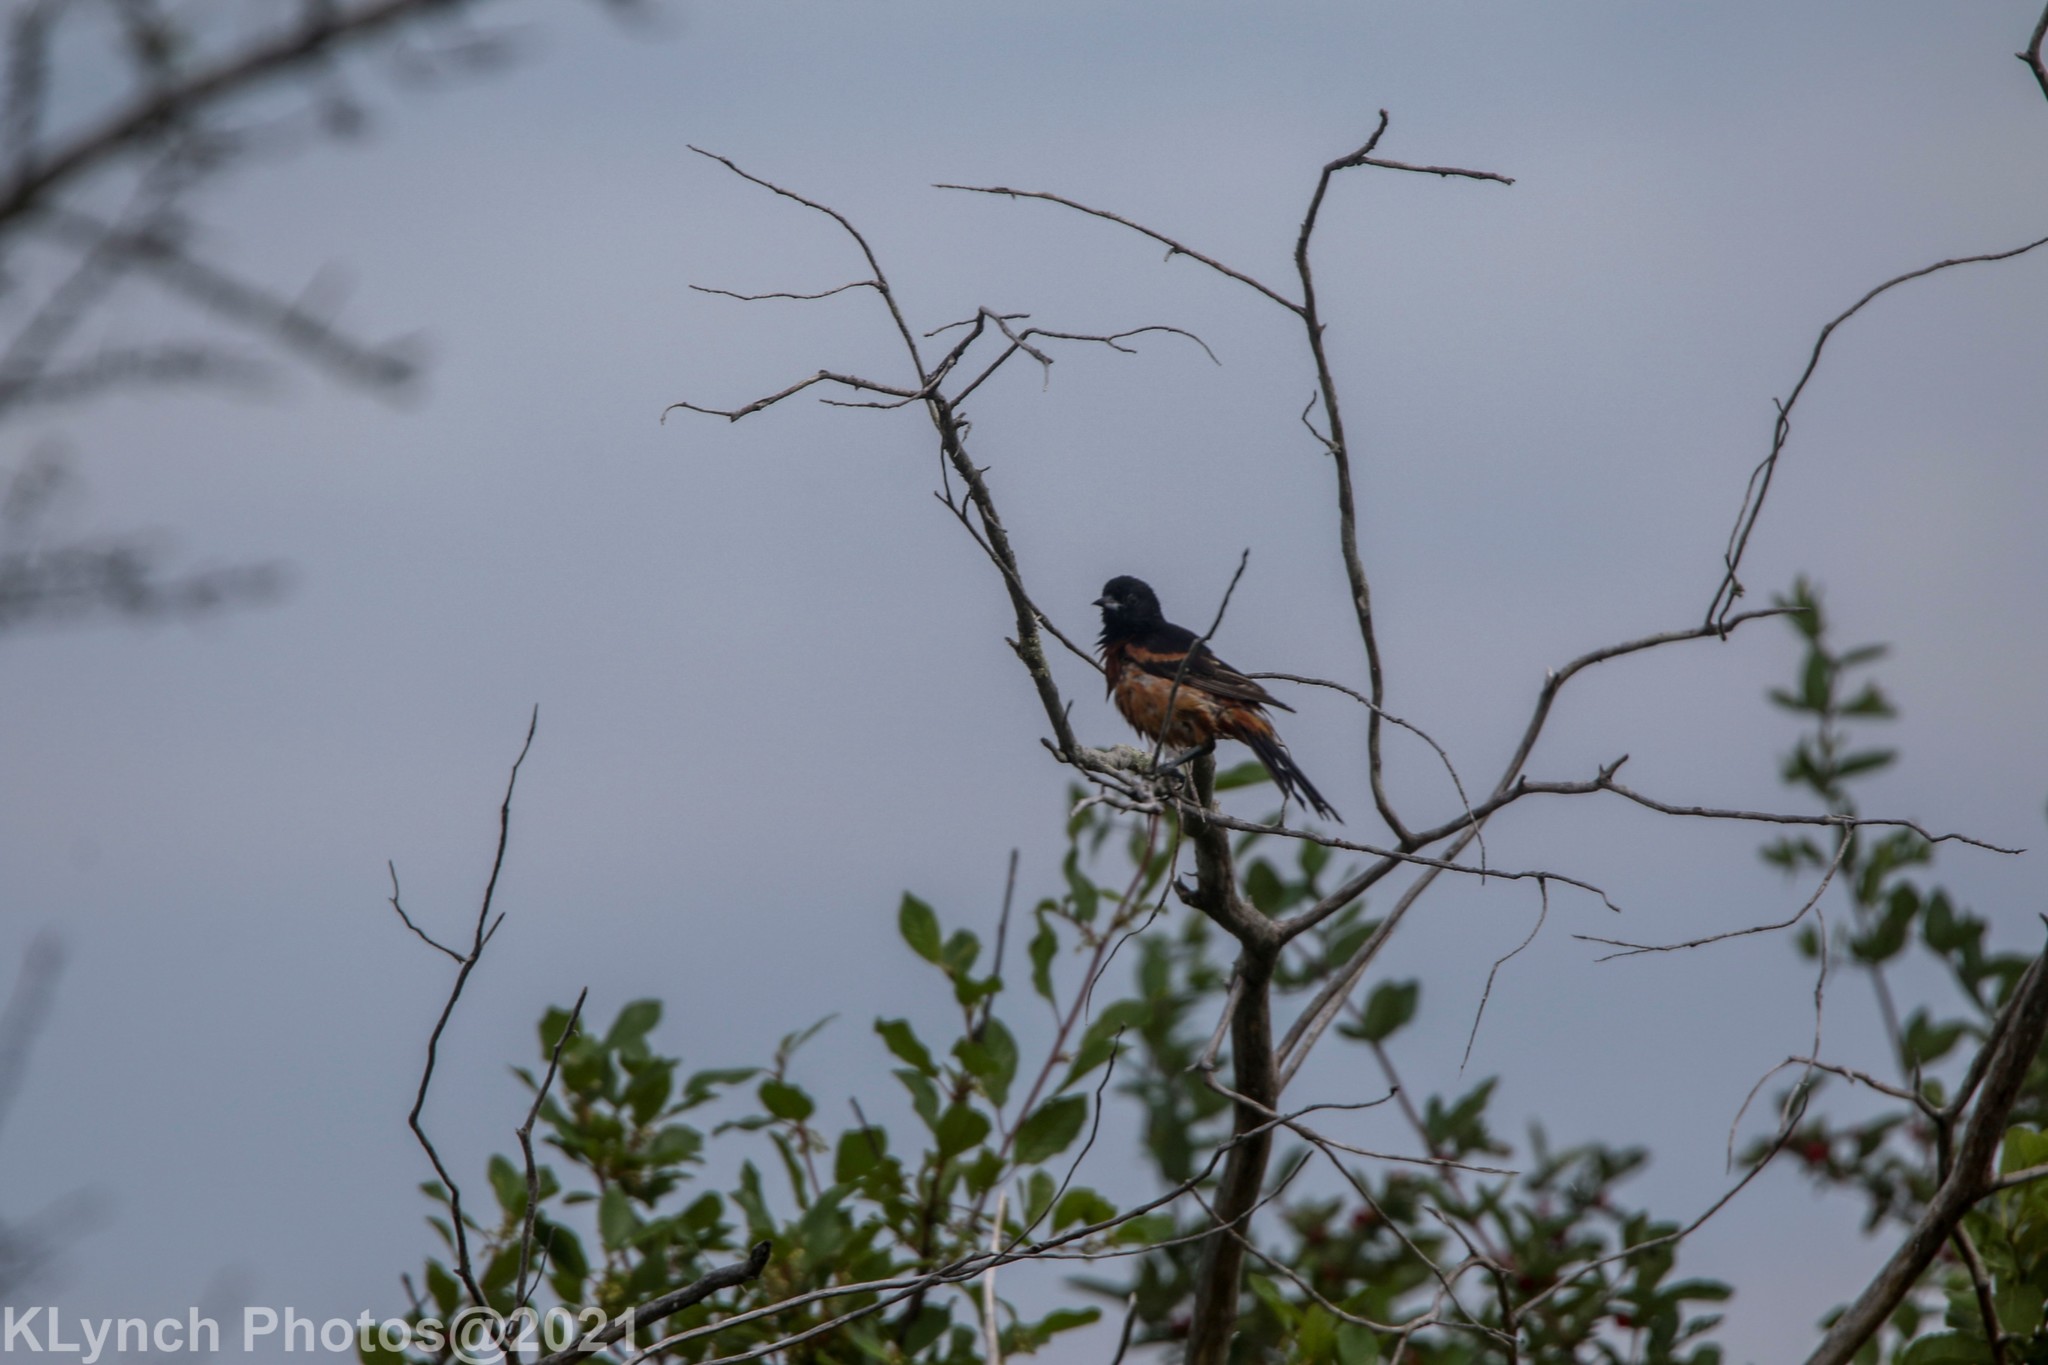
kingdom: Animalia
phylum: Chordata
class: Aves
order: Passeriformes
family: Icteridae
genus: Icterus
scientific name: Icterus spurius
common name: Orchard oriole
